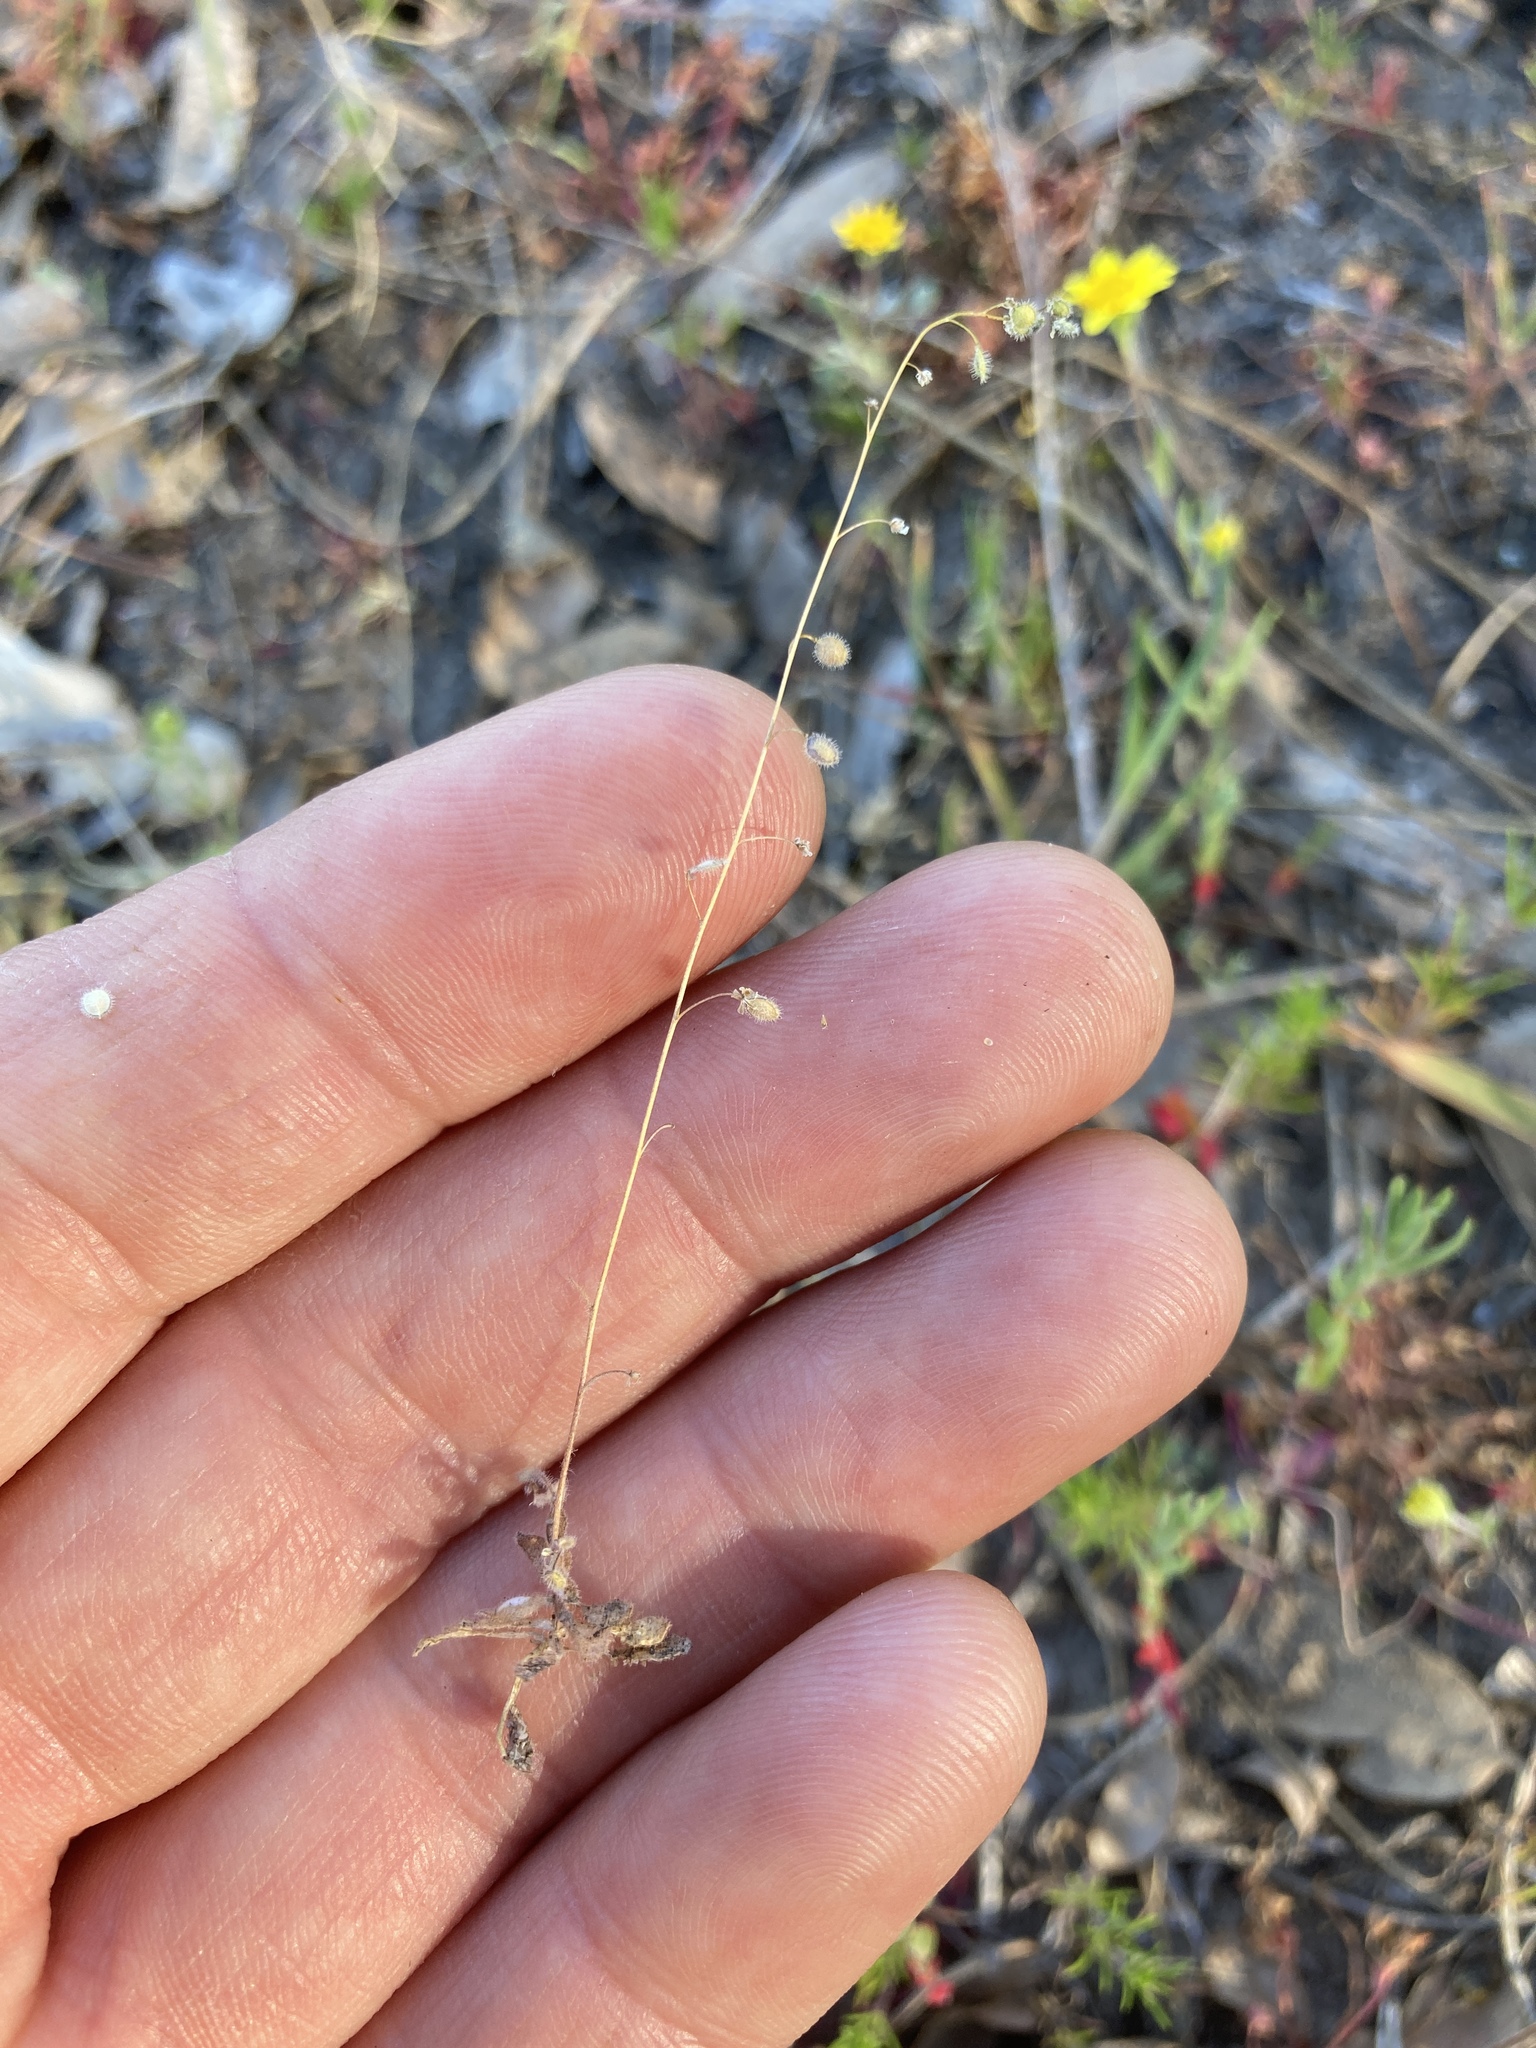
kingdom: Plantae
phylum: Tracheophyta
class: Magnoliopsida
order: Brassicales
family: Brassicaceae
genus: Athysanus
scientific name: Athysanus pusillus
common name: Common sandweed
